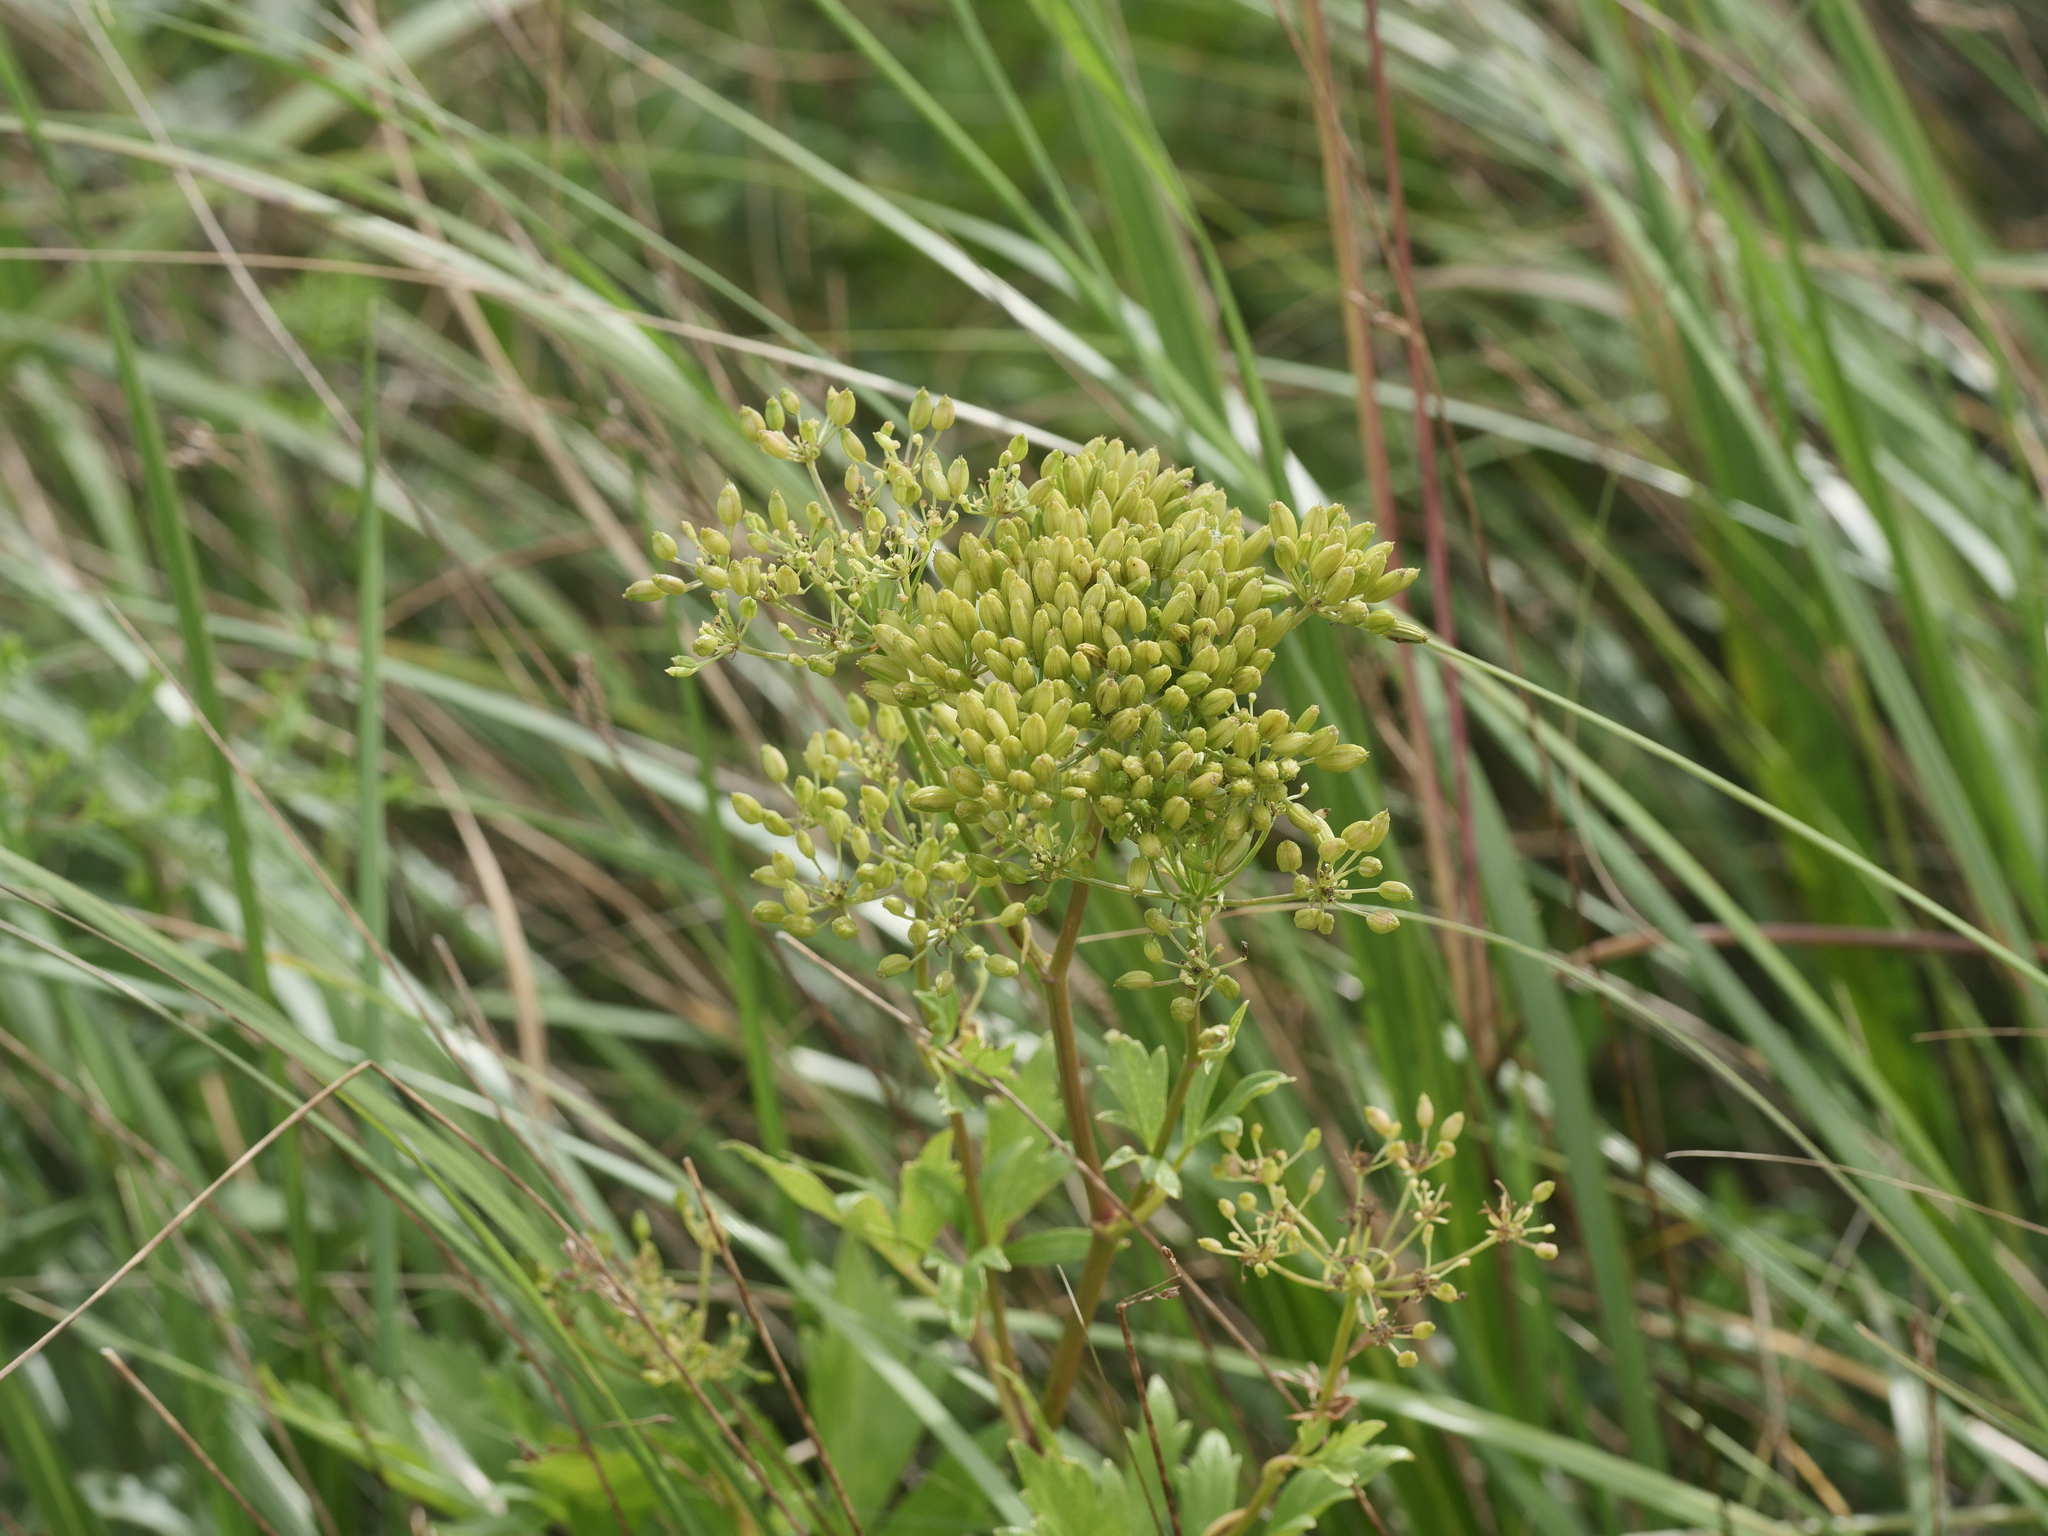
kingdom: Plantae
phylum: Tracheophyta
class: Magnoliopsida
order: Apiales
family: Apiaceae
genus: Ligusticum
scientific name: Ligusticum scothicum
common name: Beach lovage
